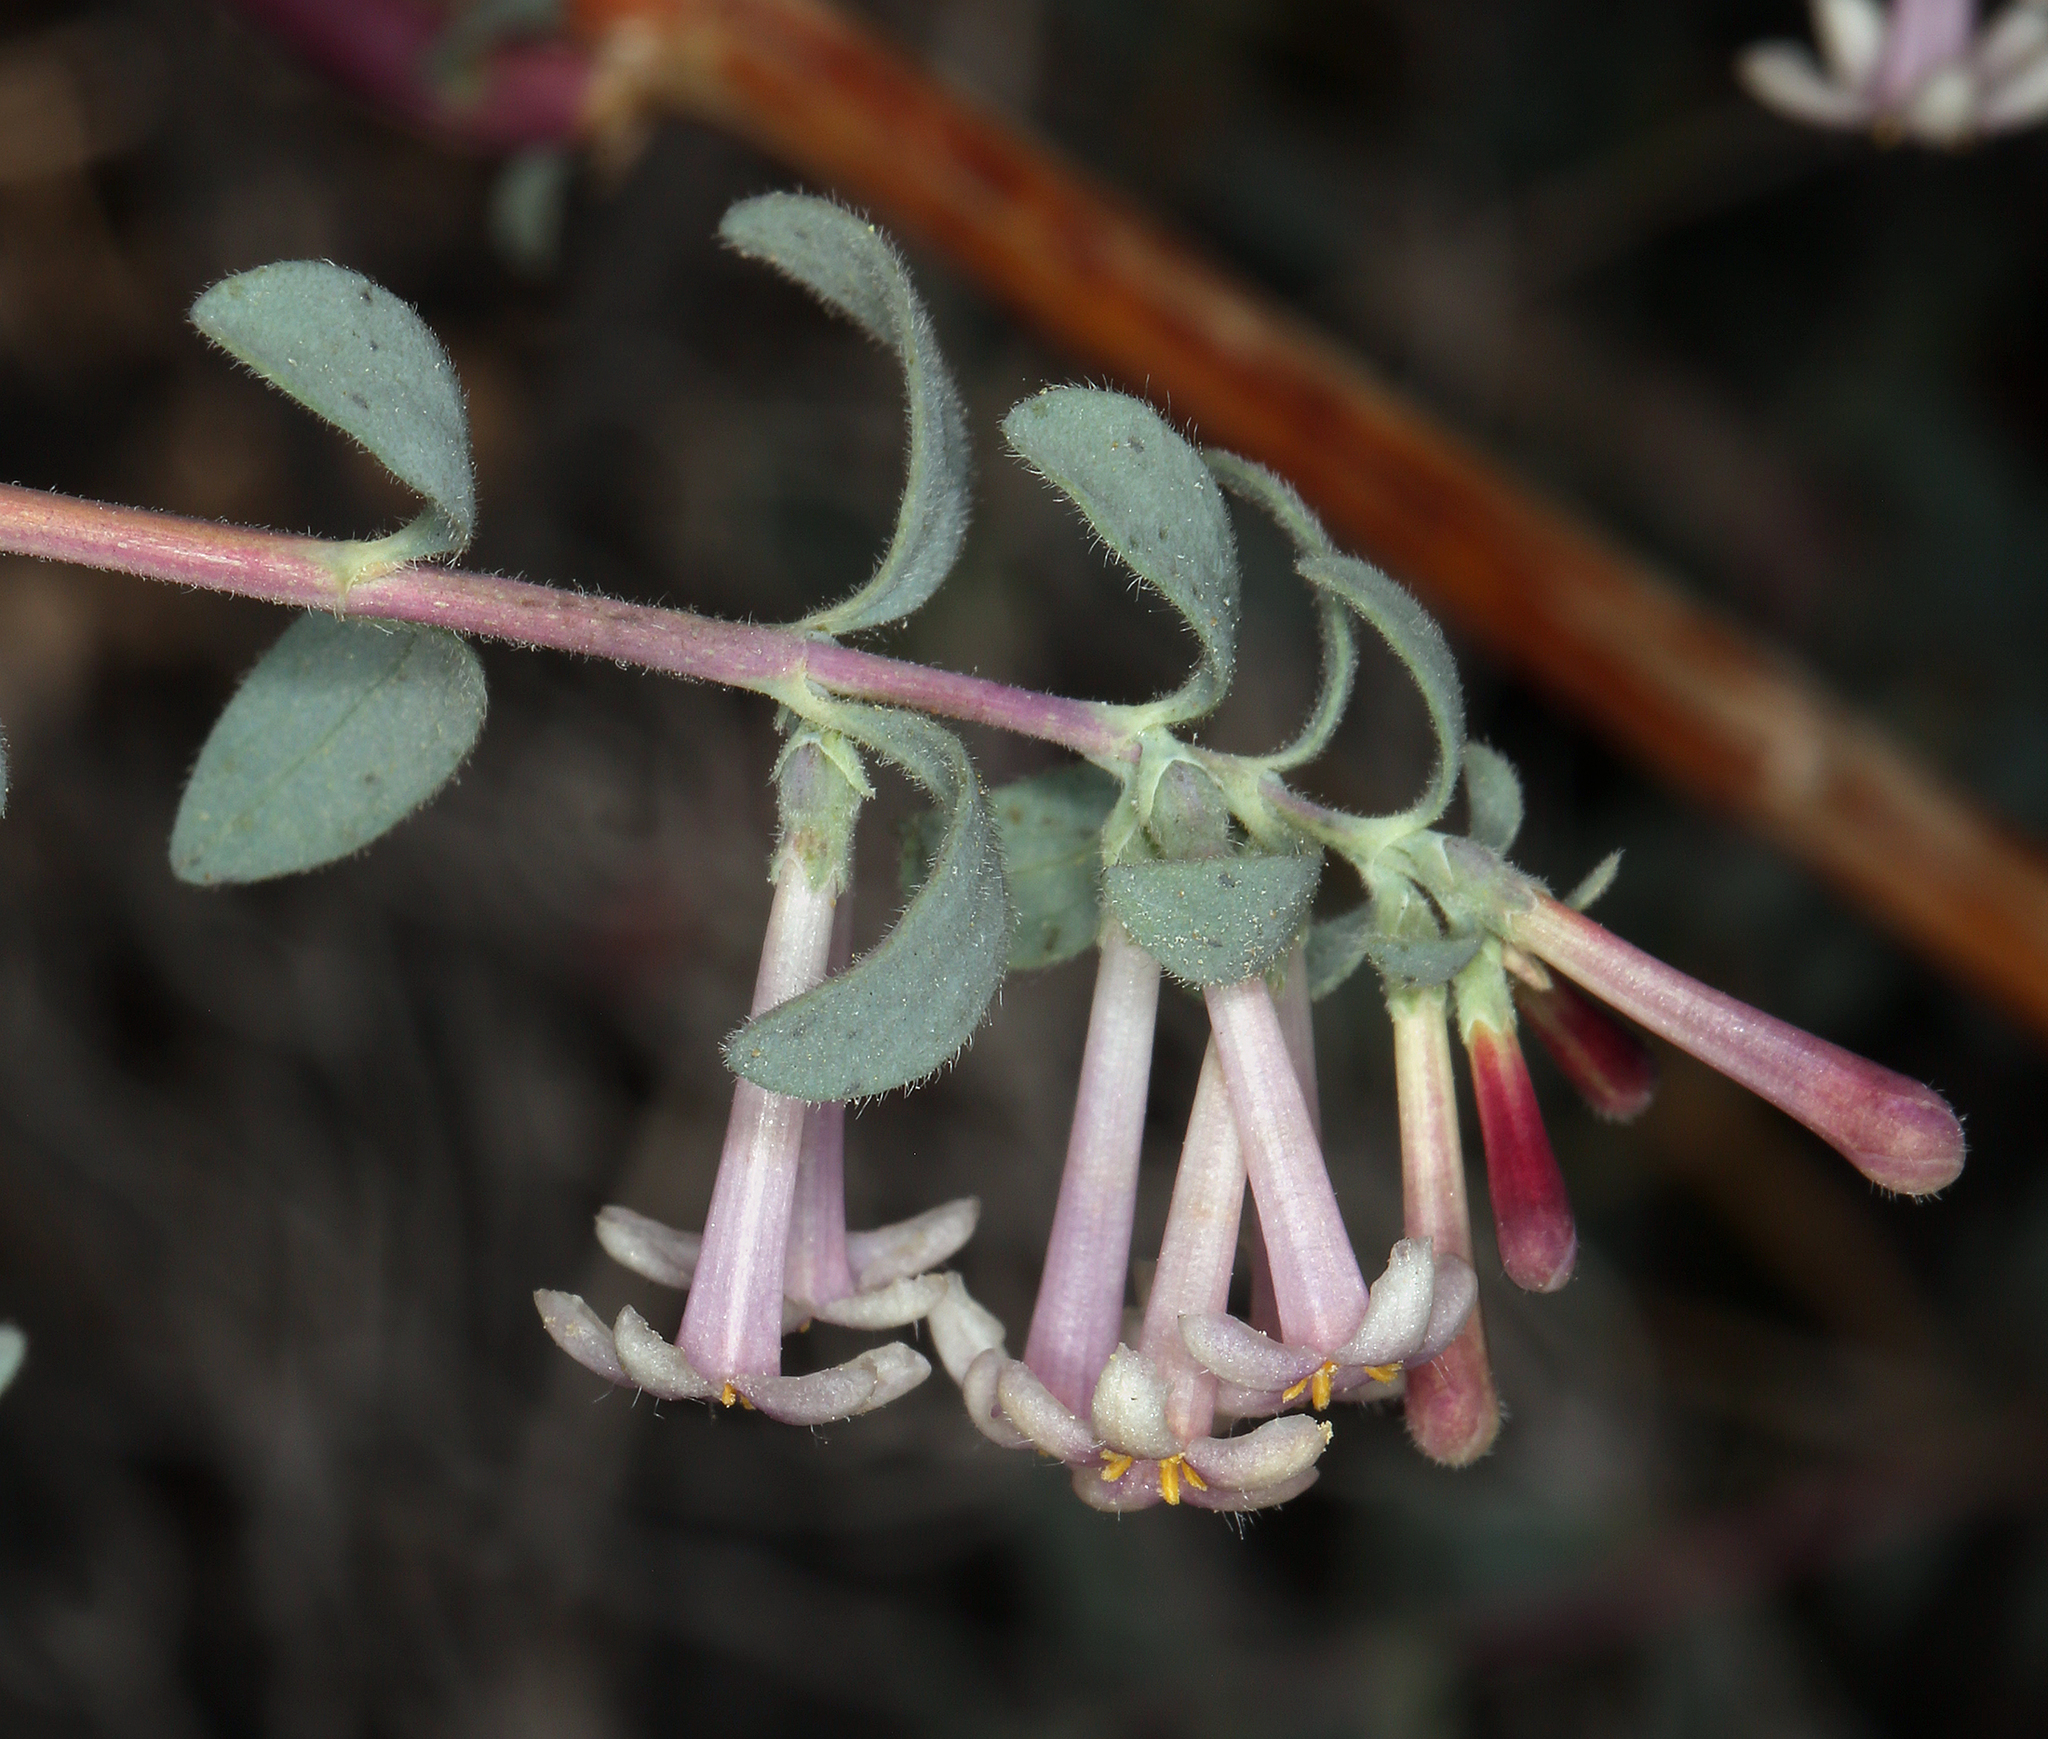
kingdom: Plantae
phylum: Tracheophyta
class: Magnoliopsida
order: Dipsacales
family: Caprifoliaceae
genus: Symphoricarpos
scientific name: Symphoricarpos longiflorus
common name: Fragrant snowberry
